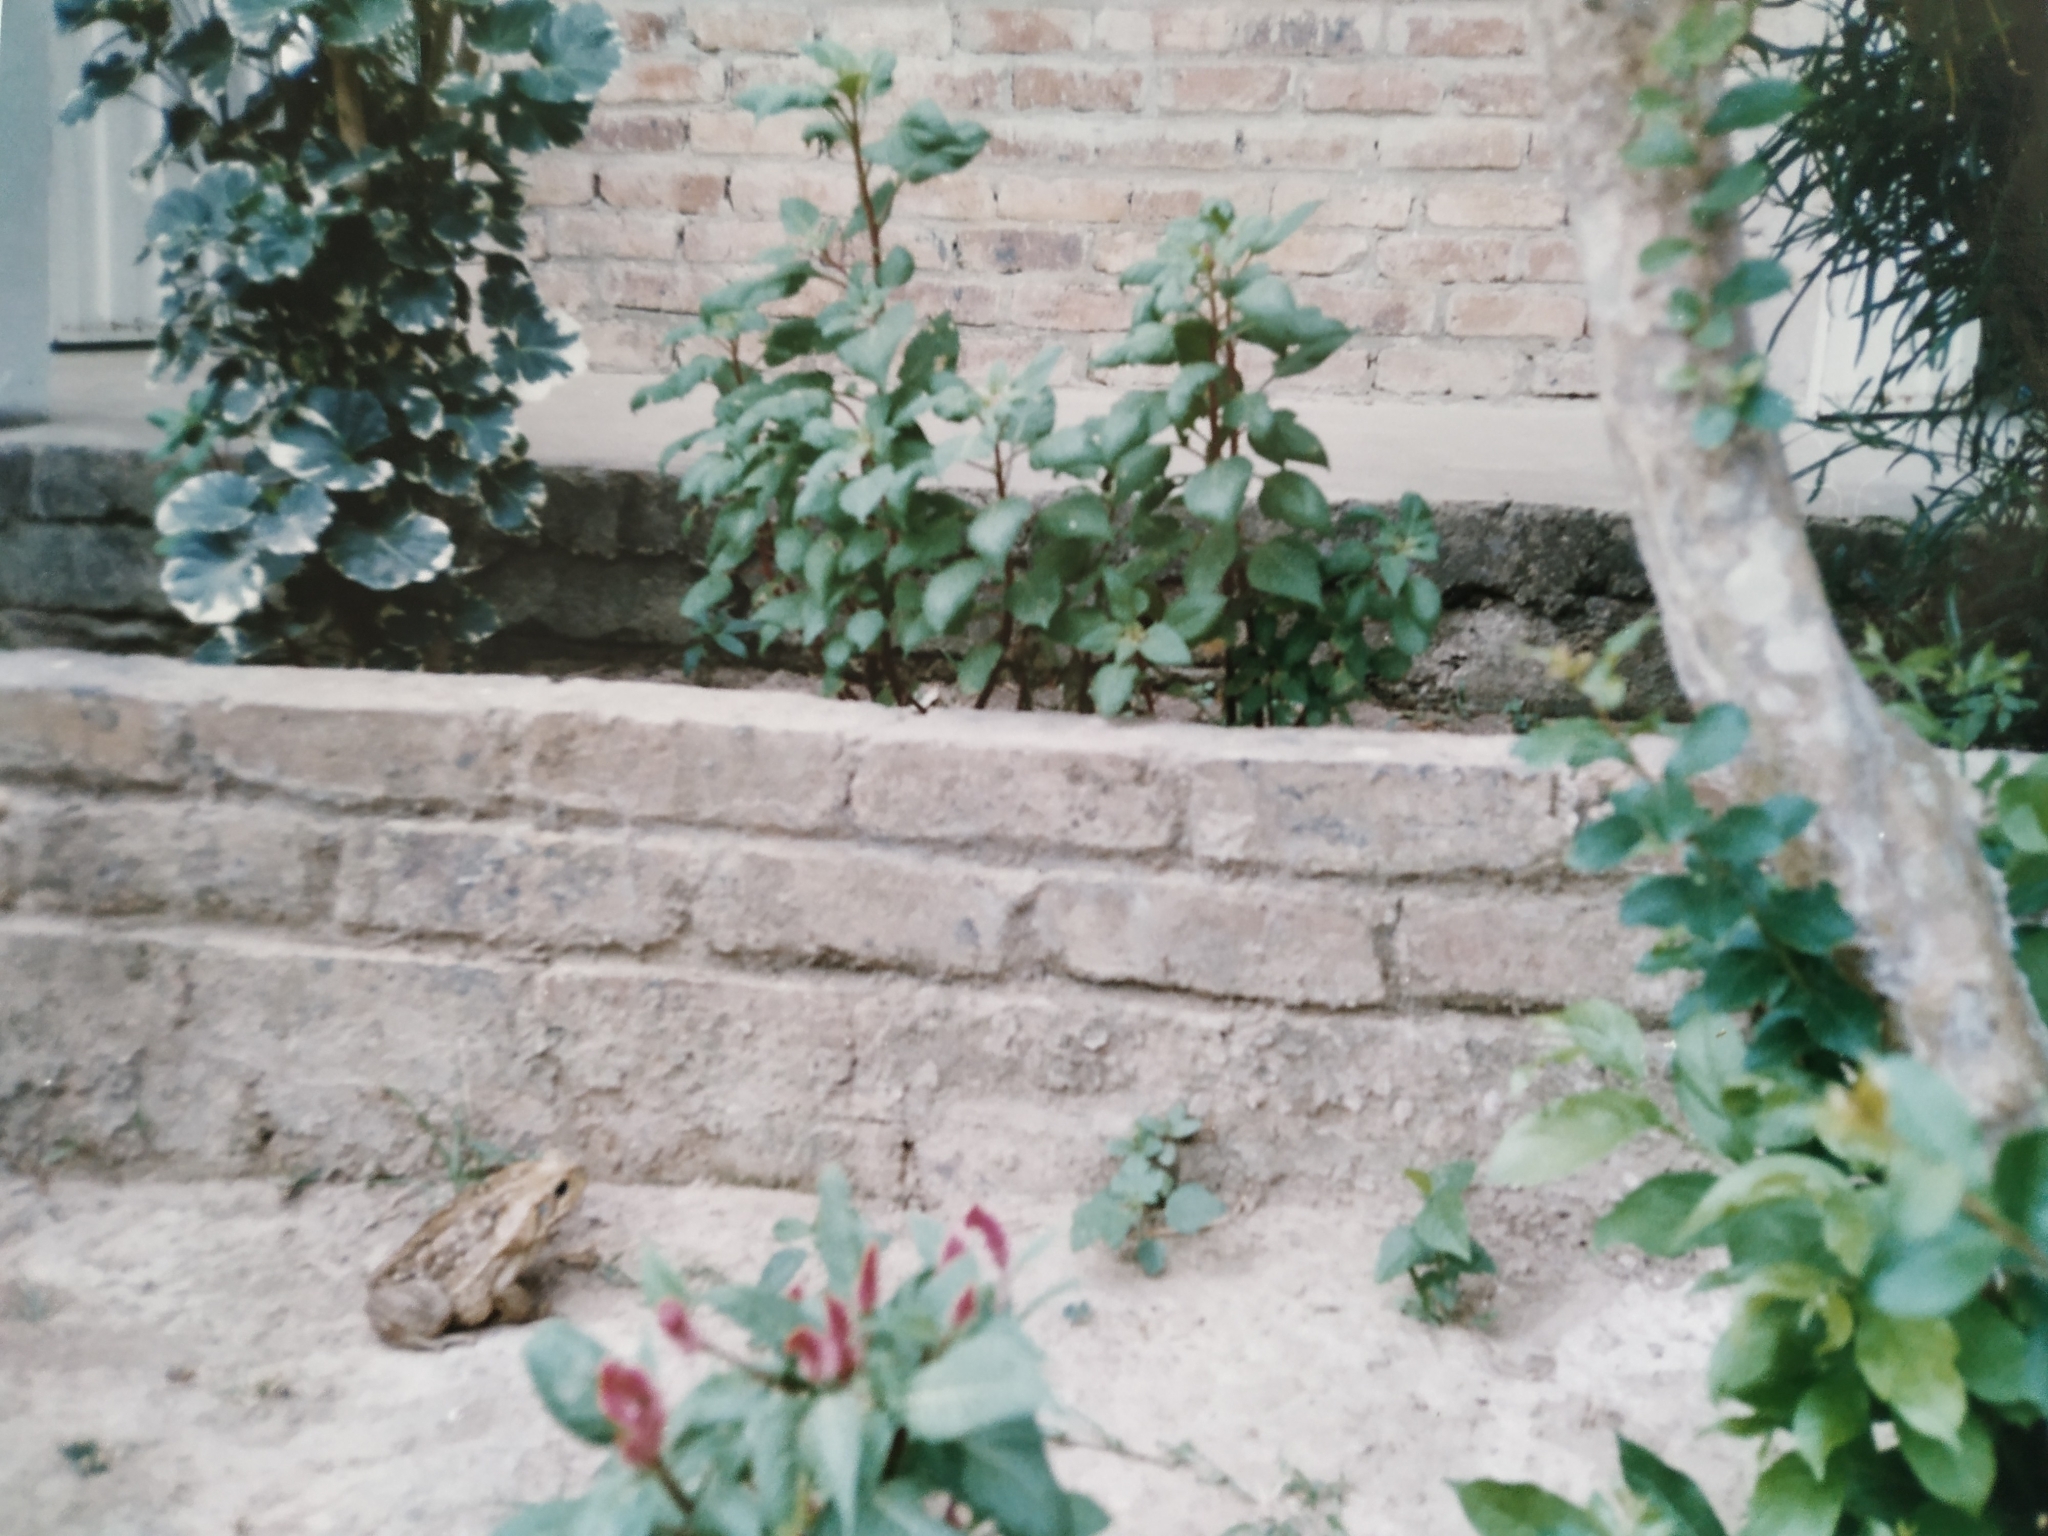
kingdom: Animalia
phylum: Chordata
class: Amphibia
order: Anura
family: Bufonidae
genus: Rhinella
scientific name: Rhinella marina
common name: Cane toad
